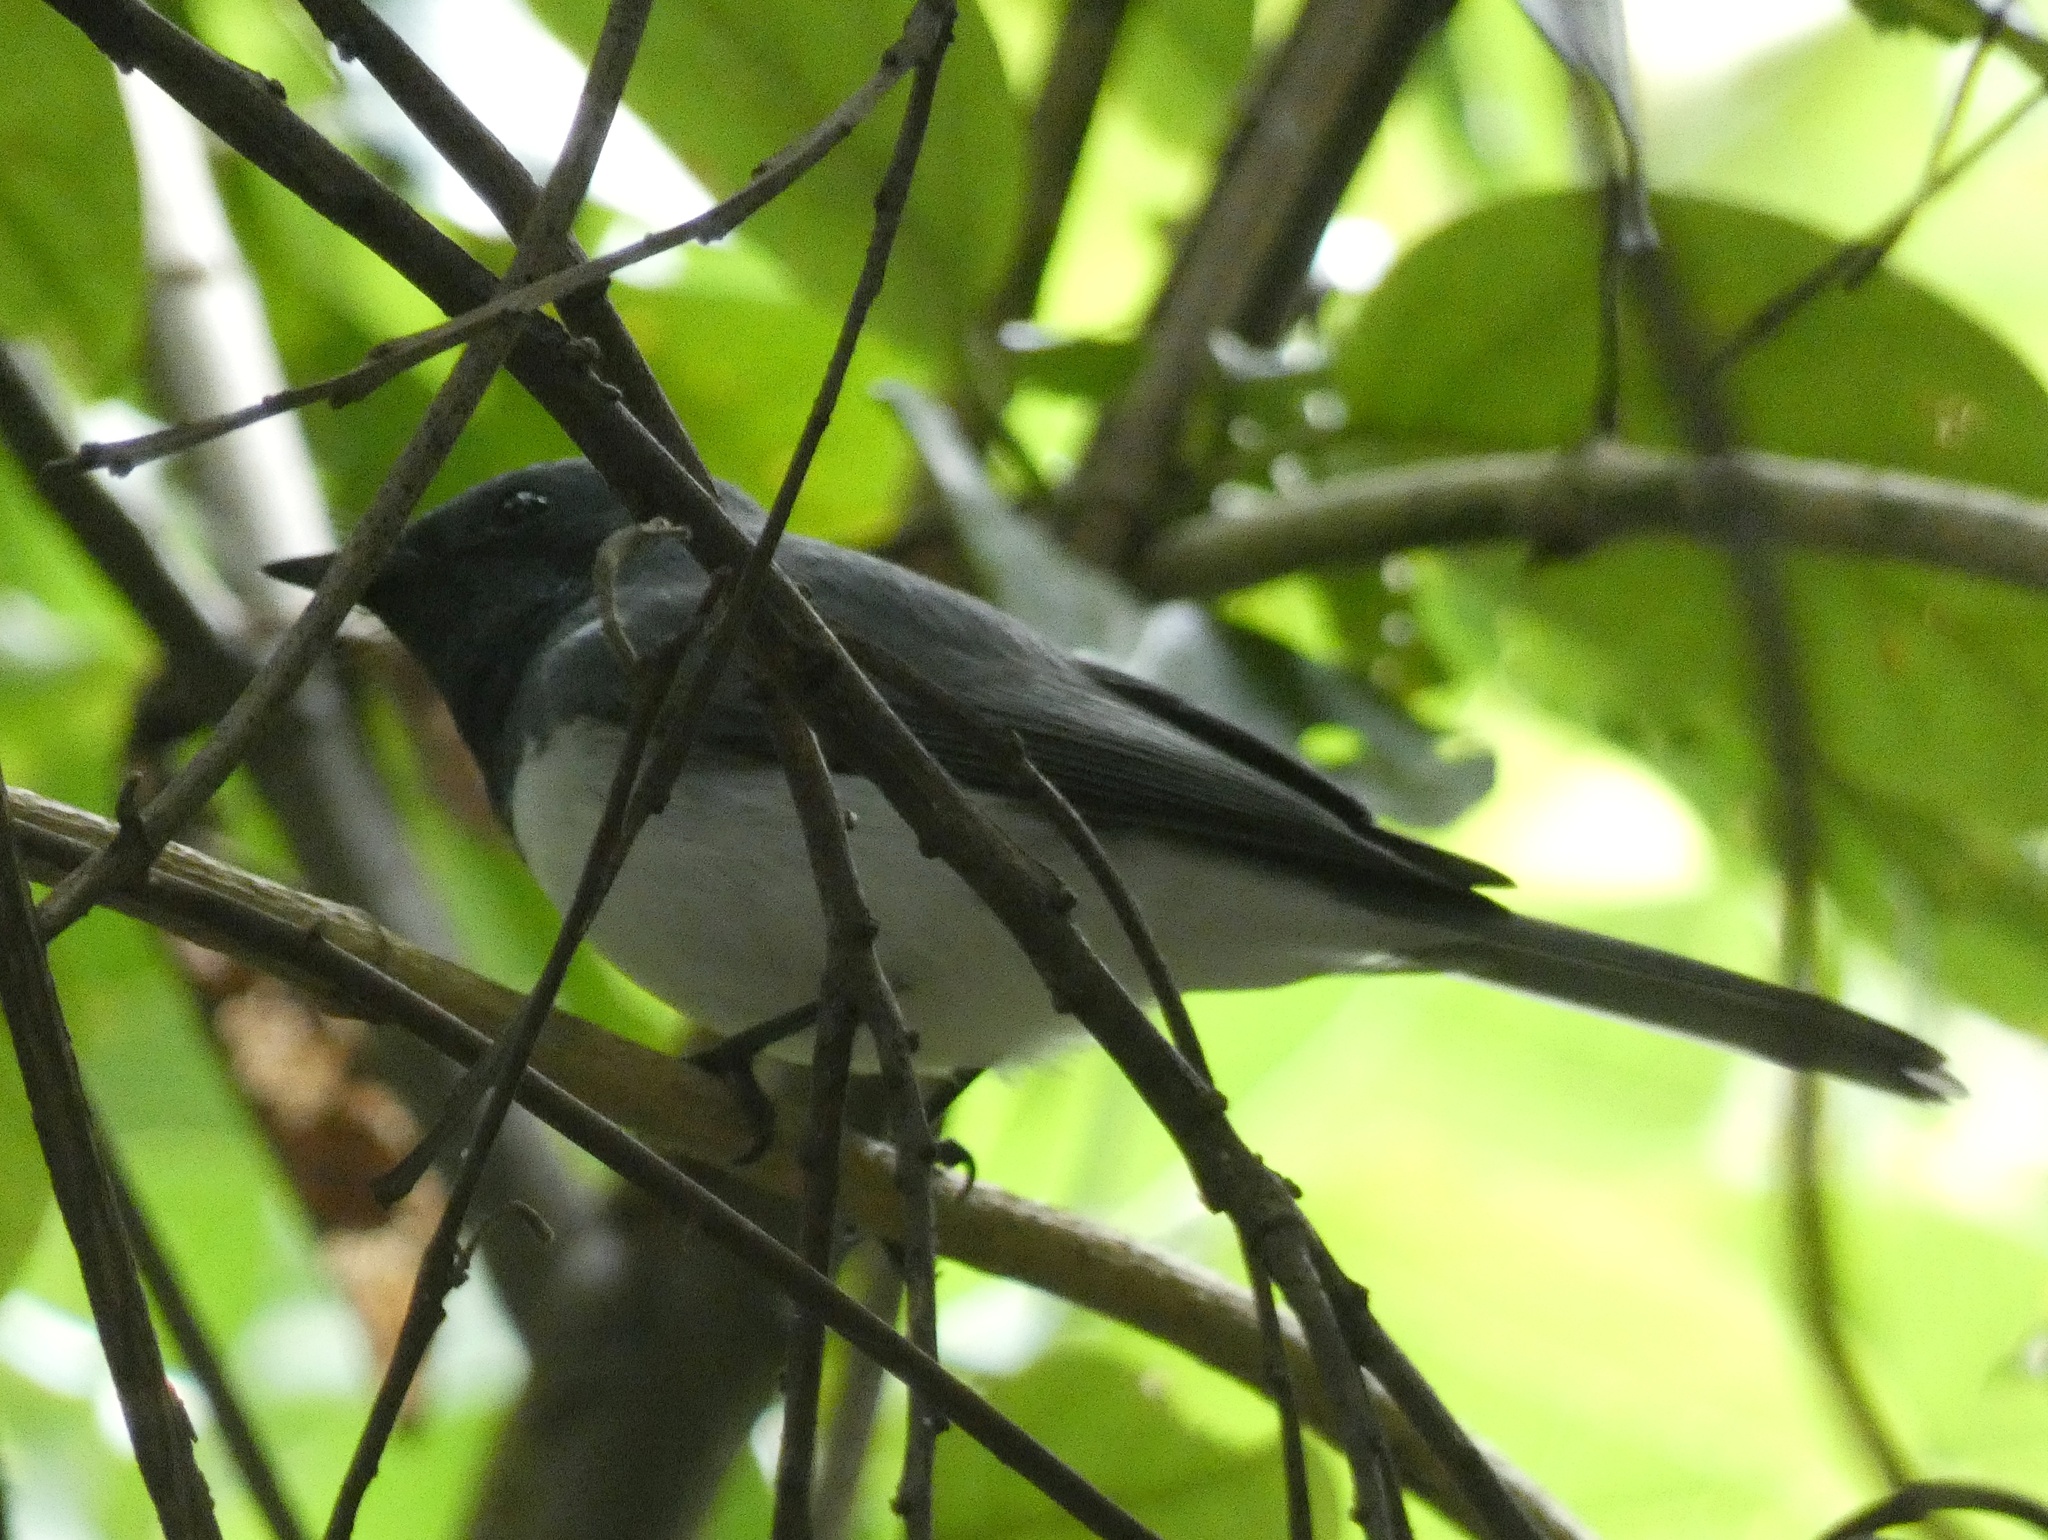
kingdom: Animalia
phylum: Chordata
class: Aves
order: Passeriformes
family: Monarchidae
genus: Myiagra
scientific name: Myiagra rubecula
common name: Leaden flycatcher
